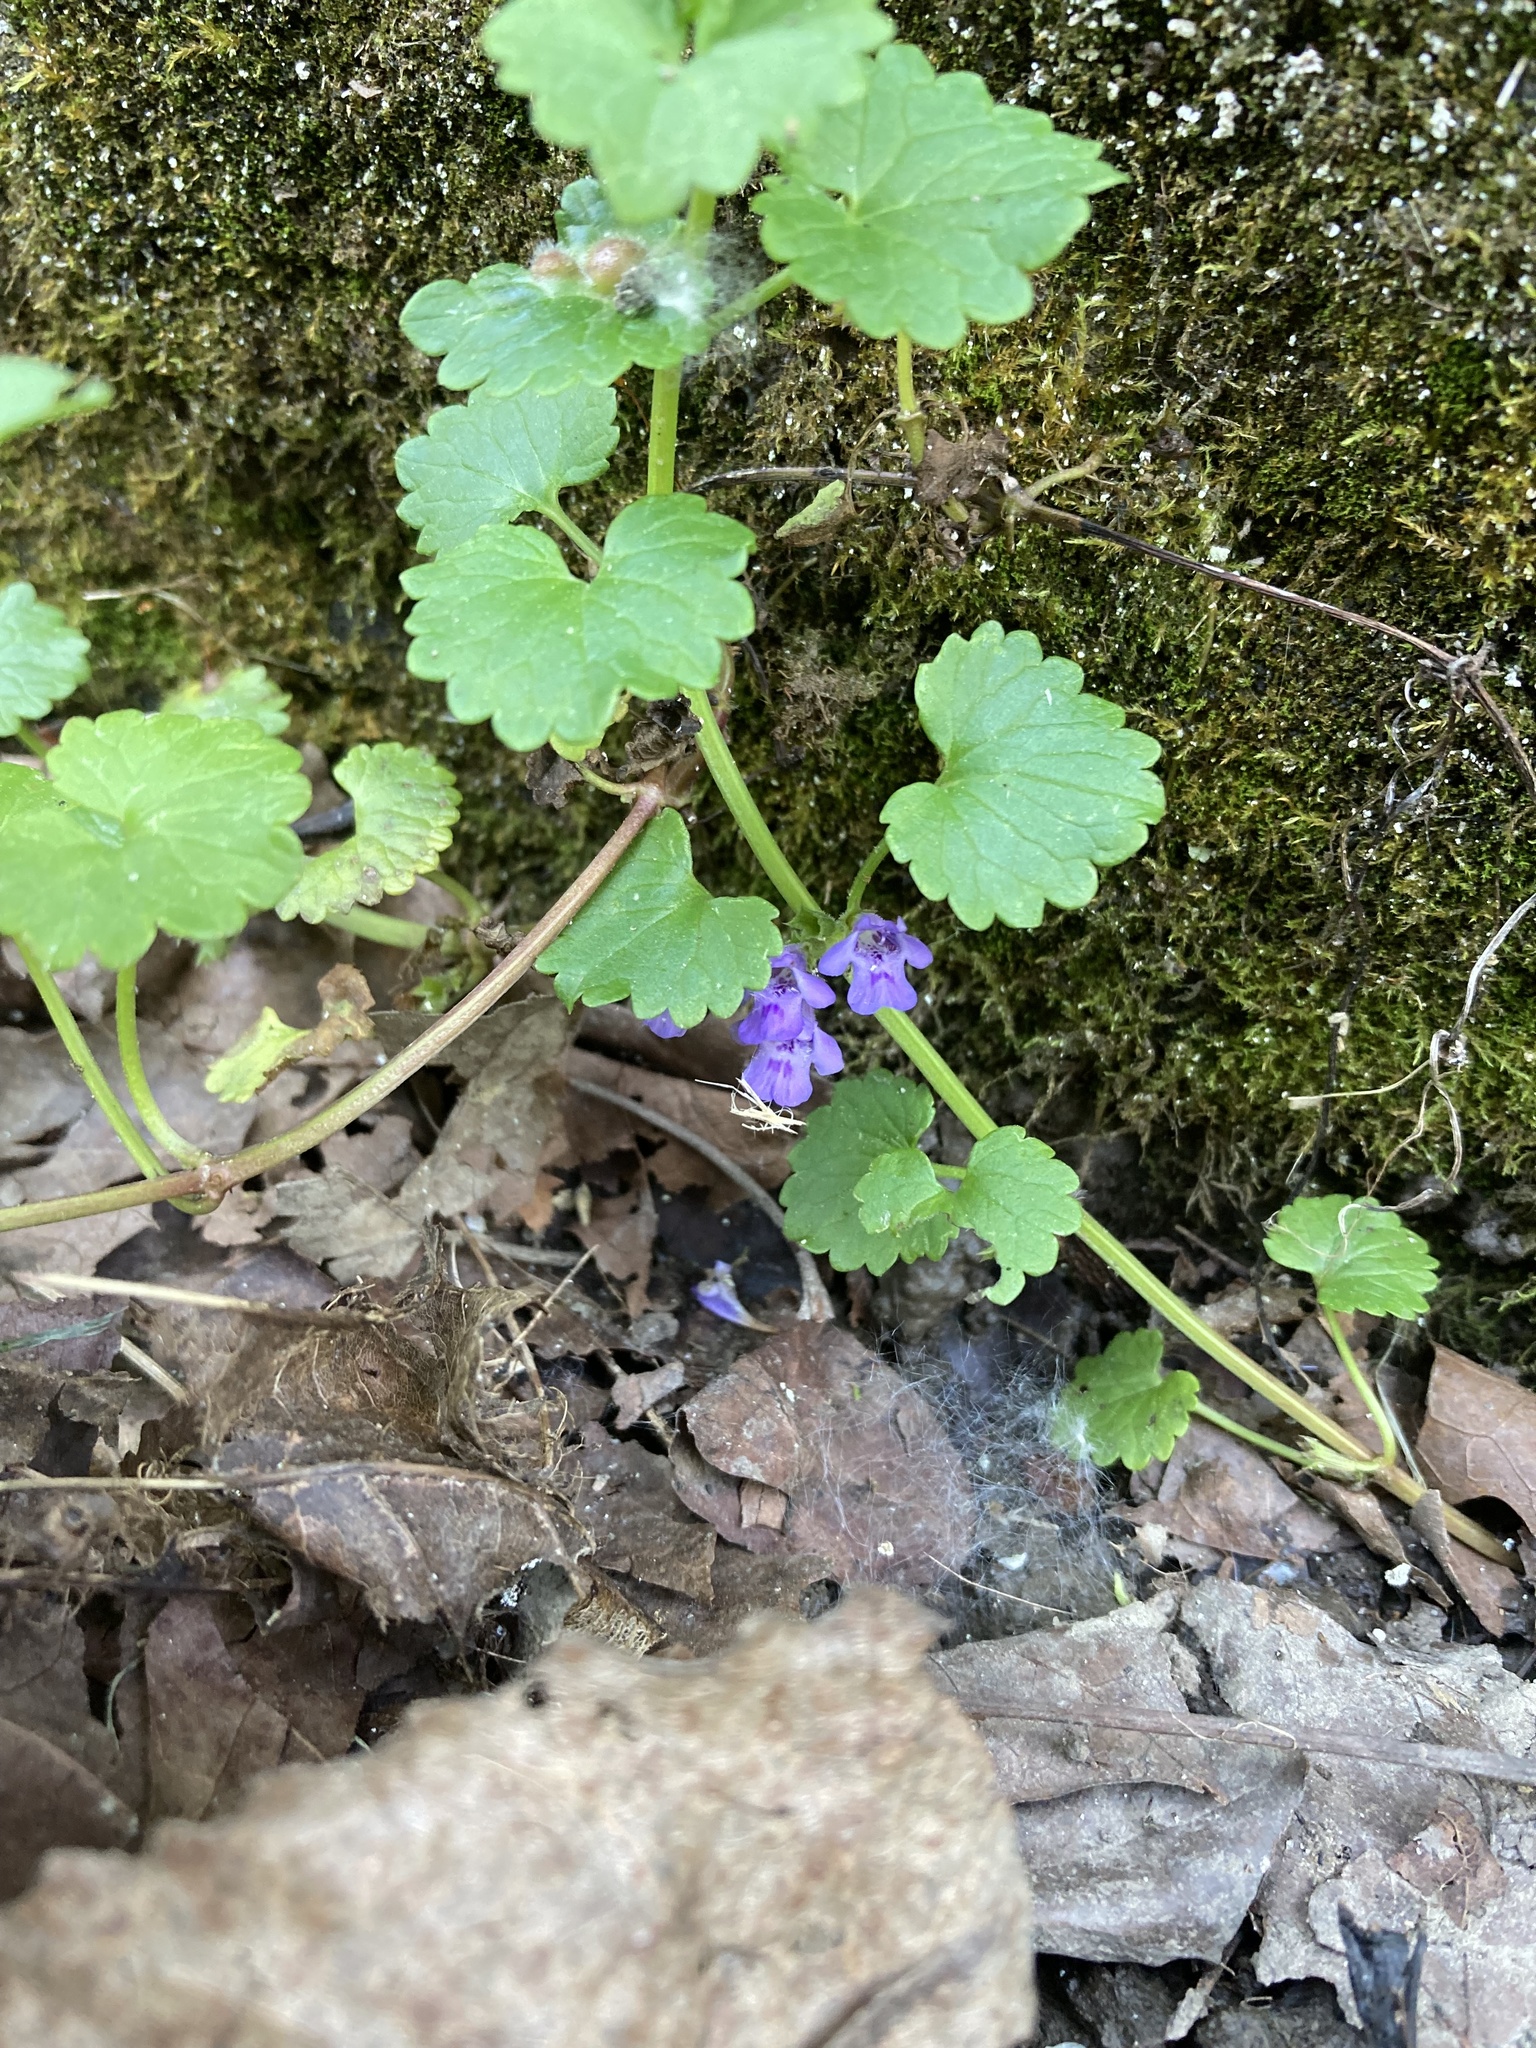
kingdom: Plantae
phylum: Tracheophyta
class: Magnoliopsida
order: Lamiales
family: Lamiaceae
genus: Glechoma
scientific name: Glechoma hederacea
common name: Ground ivy
